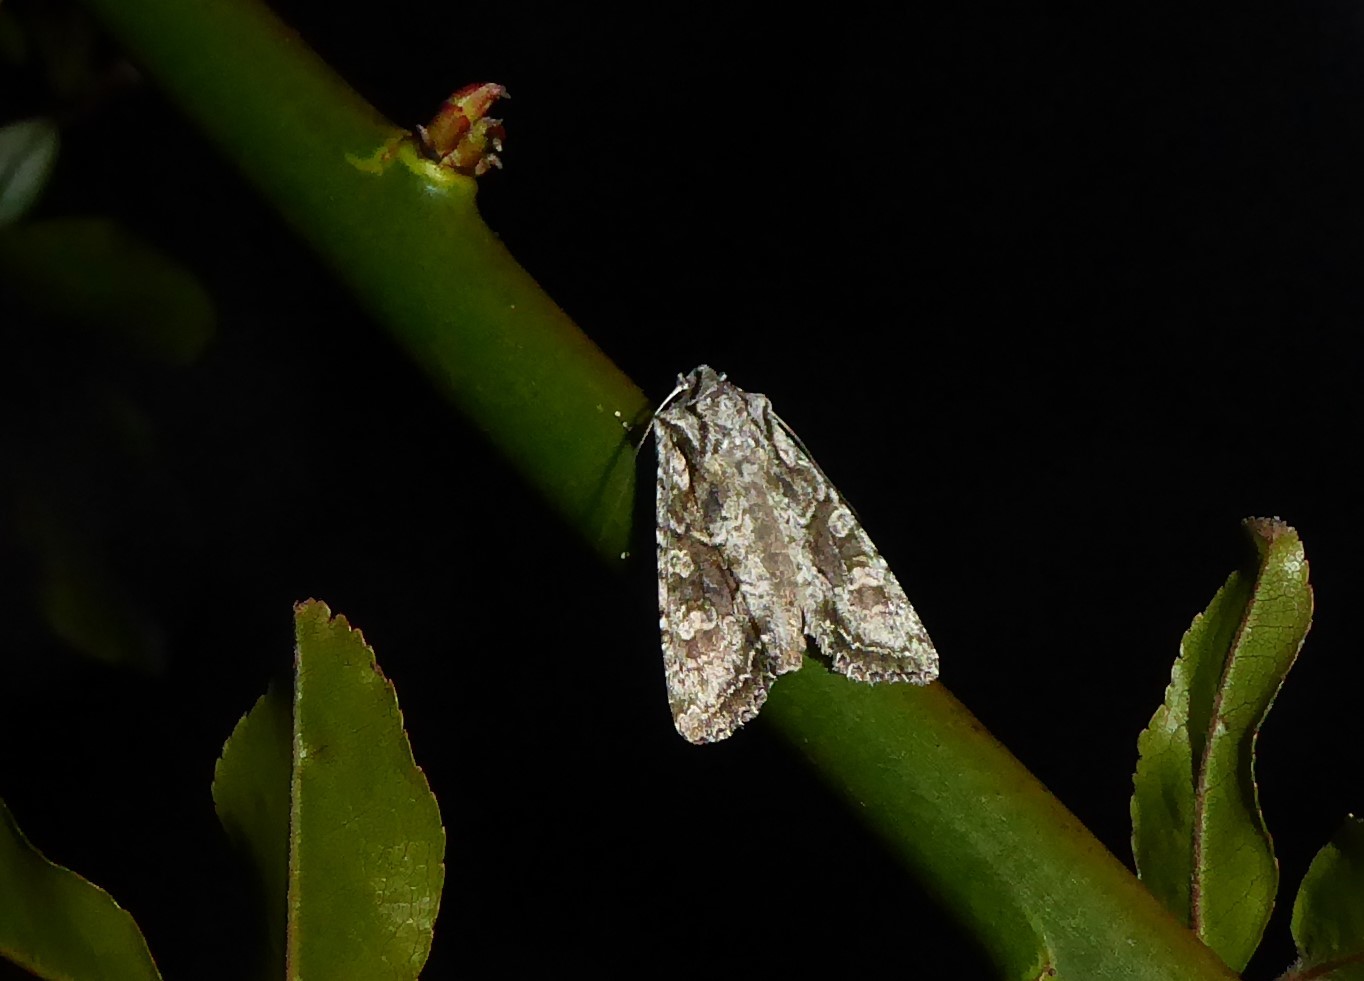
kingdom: Animalia
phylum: Arthropoda
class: Insecta
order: Lepidoptera
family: Noctuidae
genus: Ichneutica
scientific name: Ichneutica mutans
